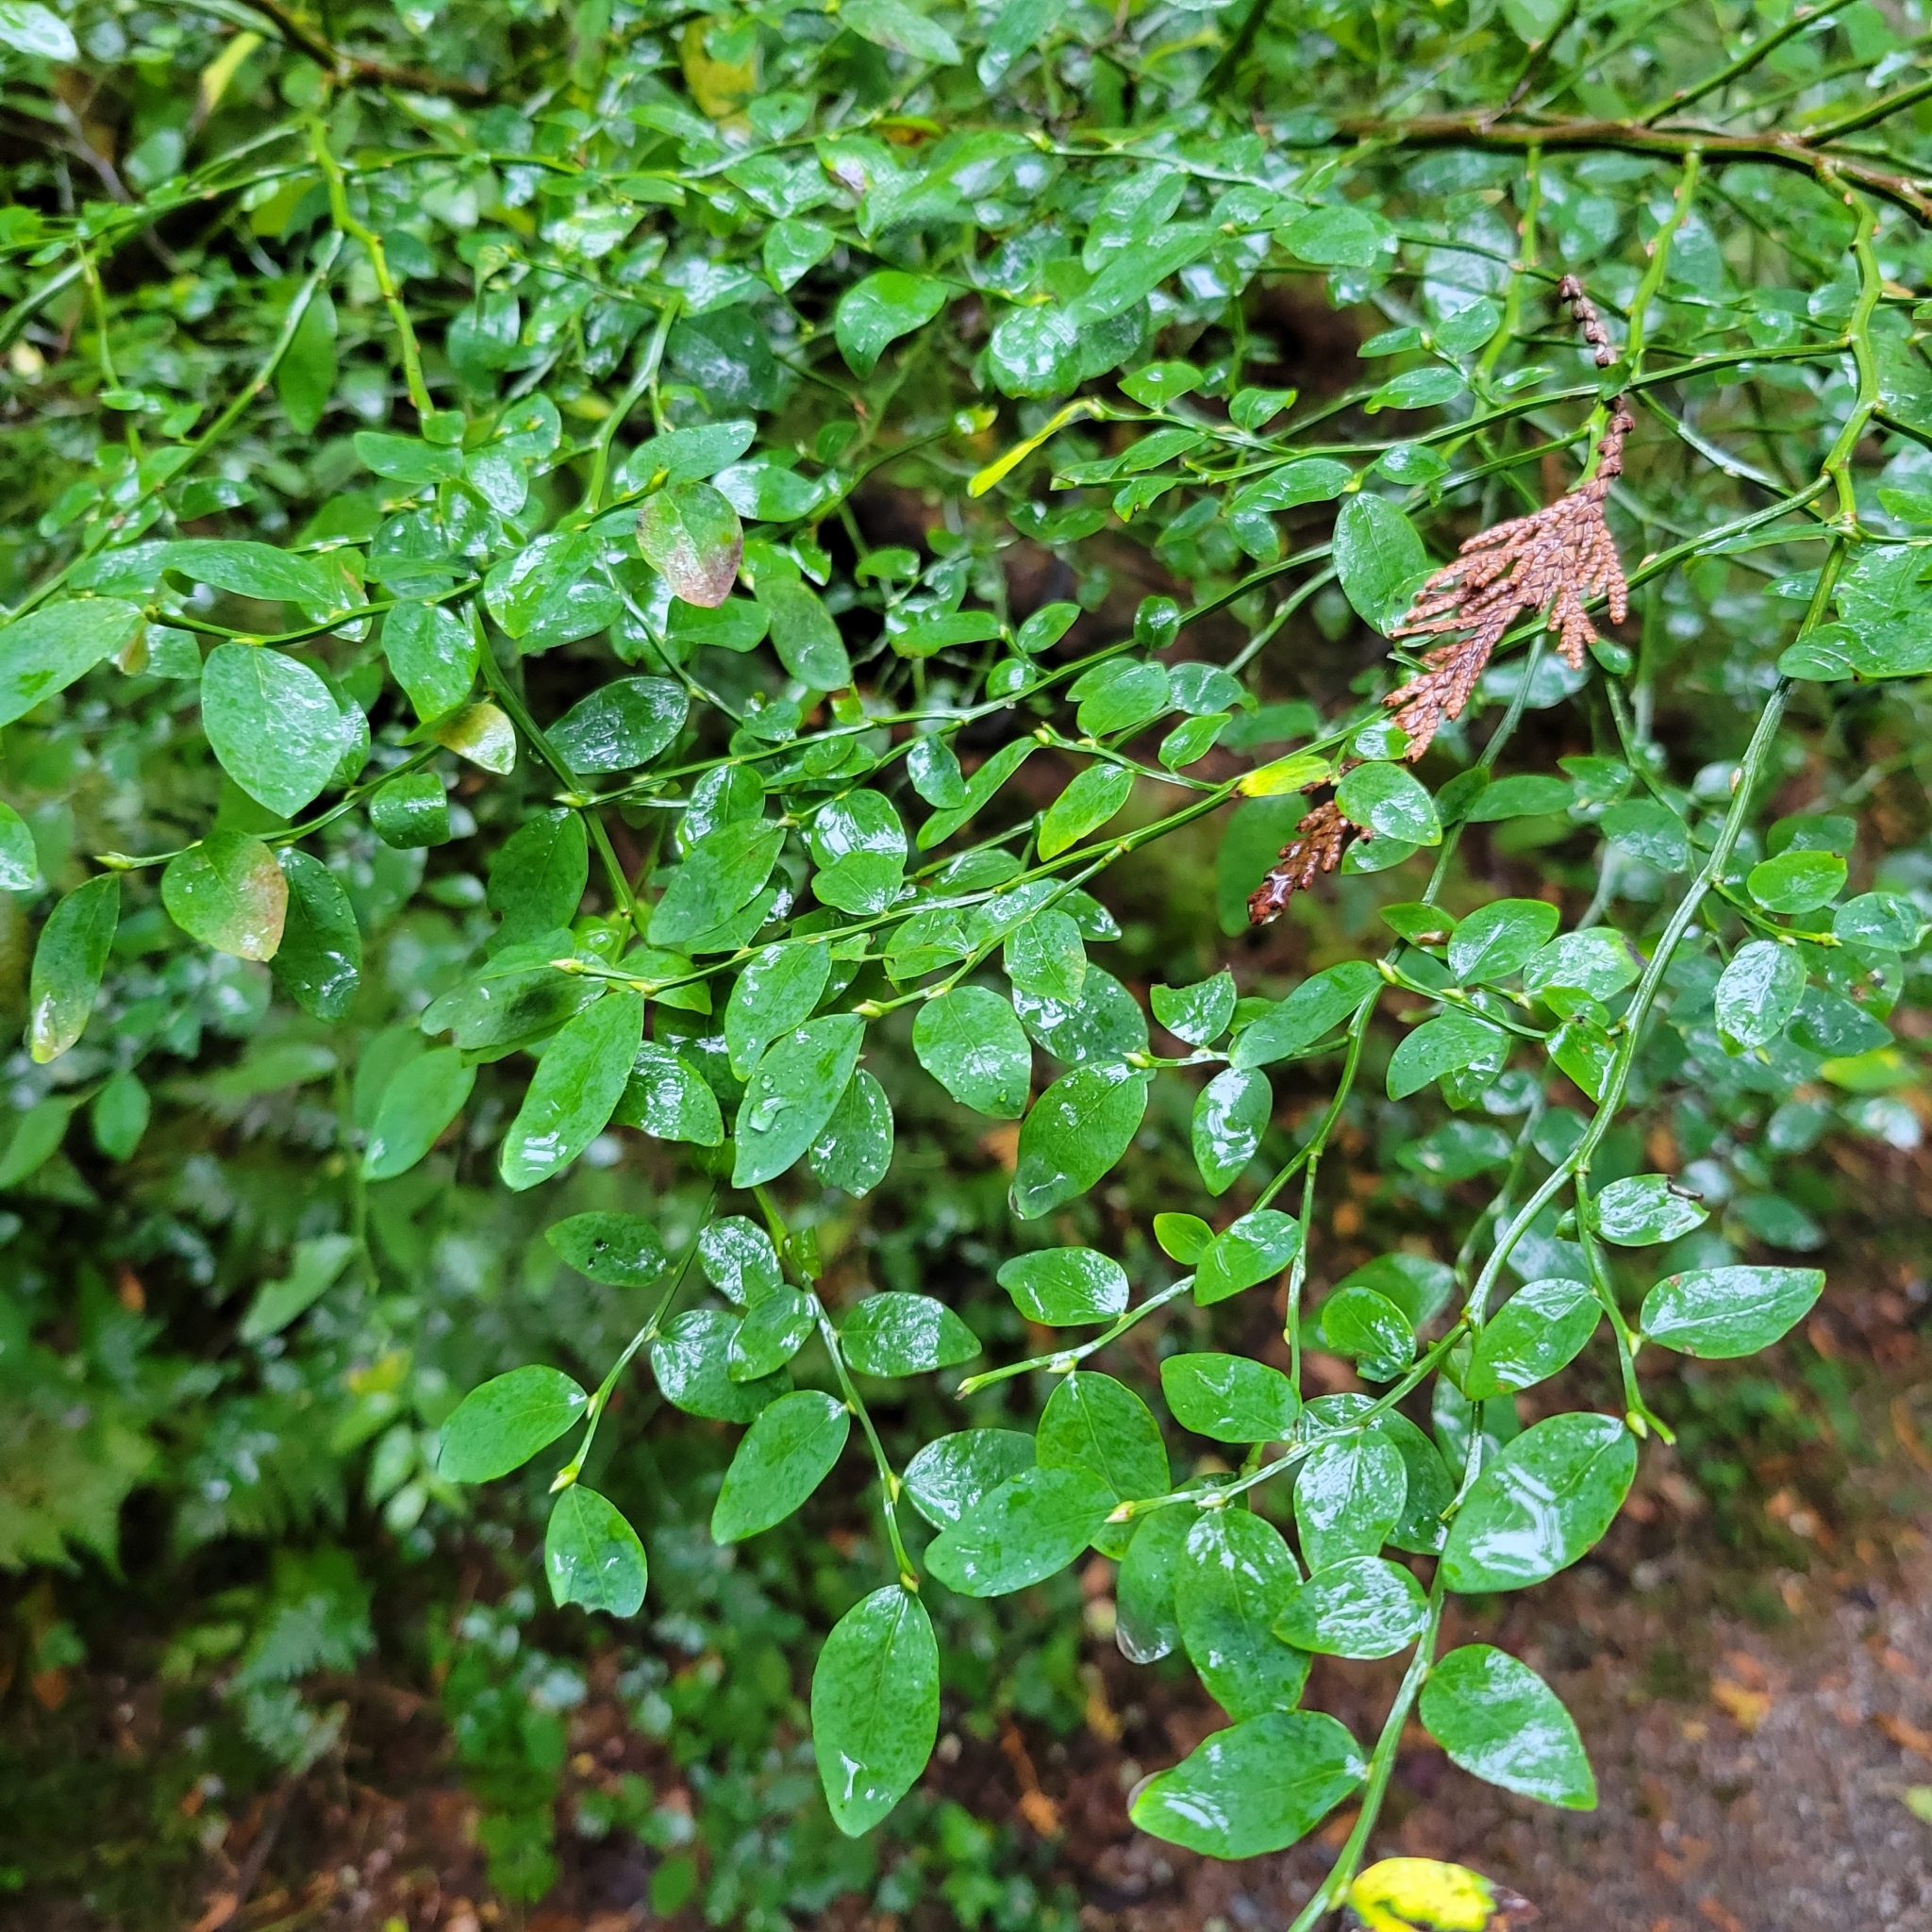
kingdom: Plantae
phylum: Tracheophyta
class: Magnoliopsida
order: Ericales
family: Ericaceae
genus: Vaccinium
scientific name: Vaccinium parvifolium
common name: Red-huckleberry
